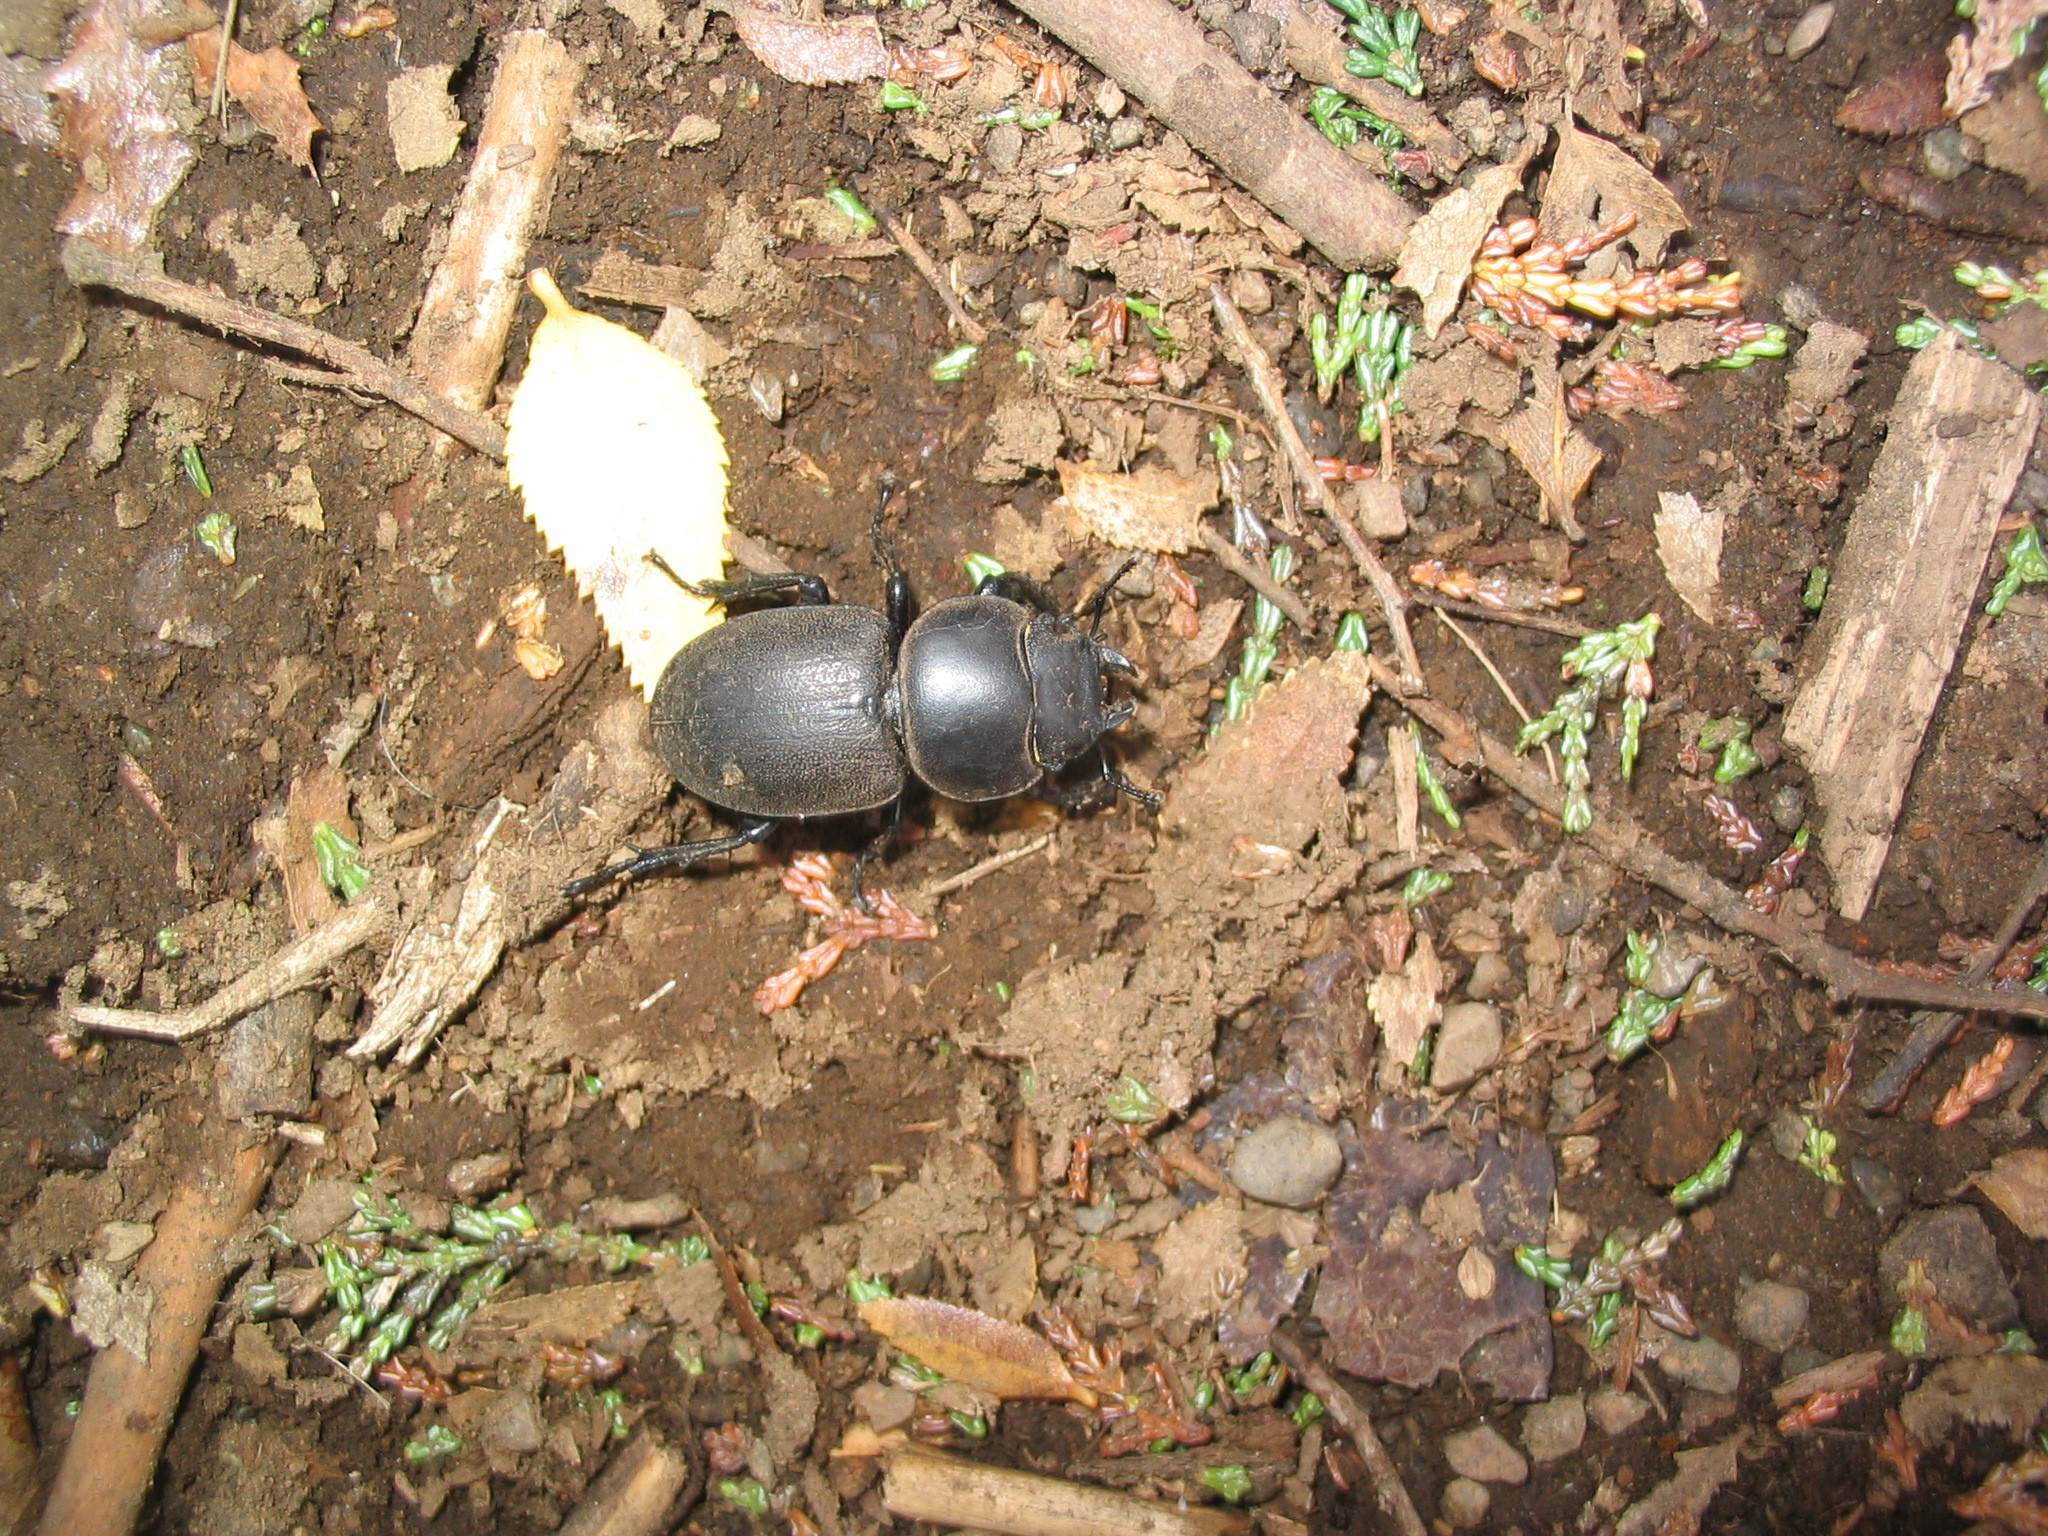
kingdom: Animalia
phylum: Arthropoda
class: Insecta
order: Coleoptera
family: Lucanidae
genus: Apterodorcus
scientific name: Apterodorcus bacchus
